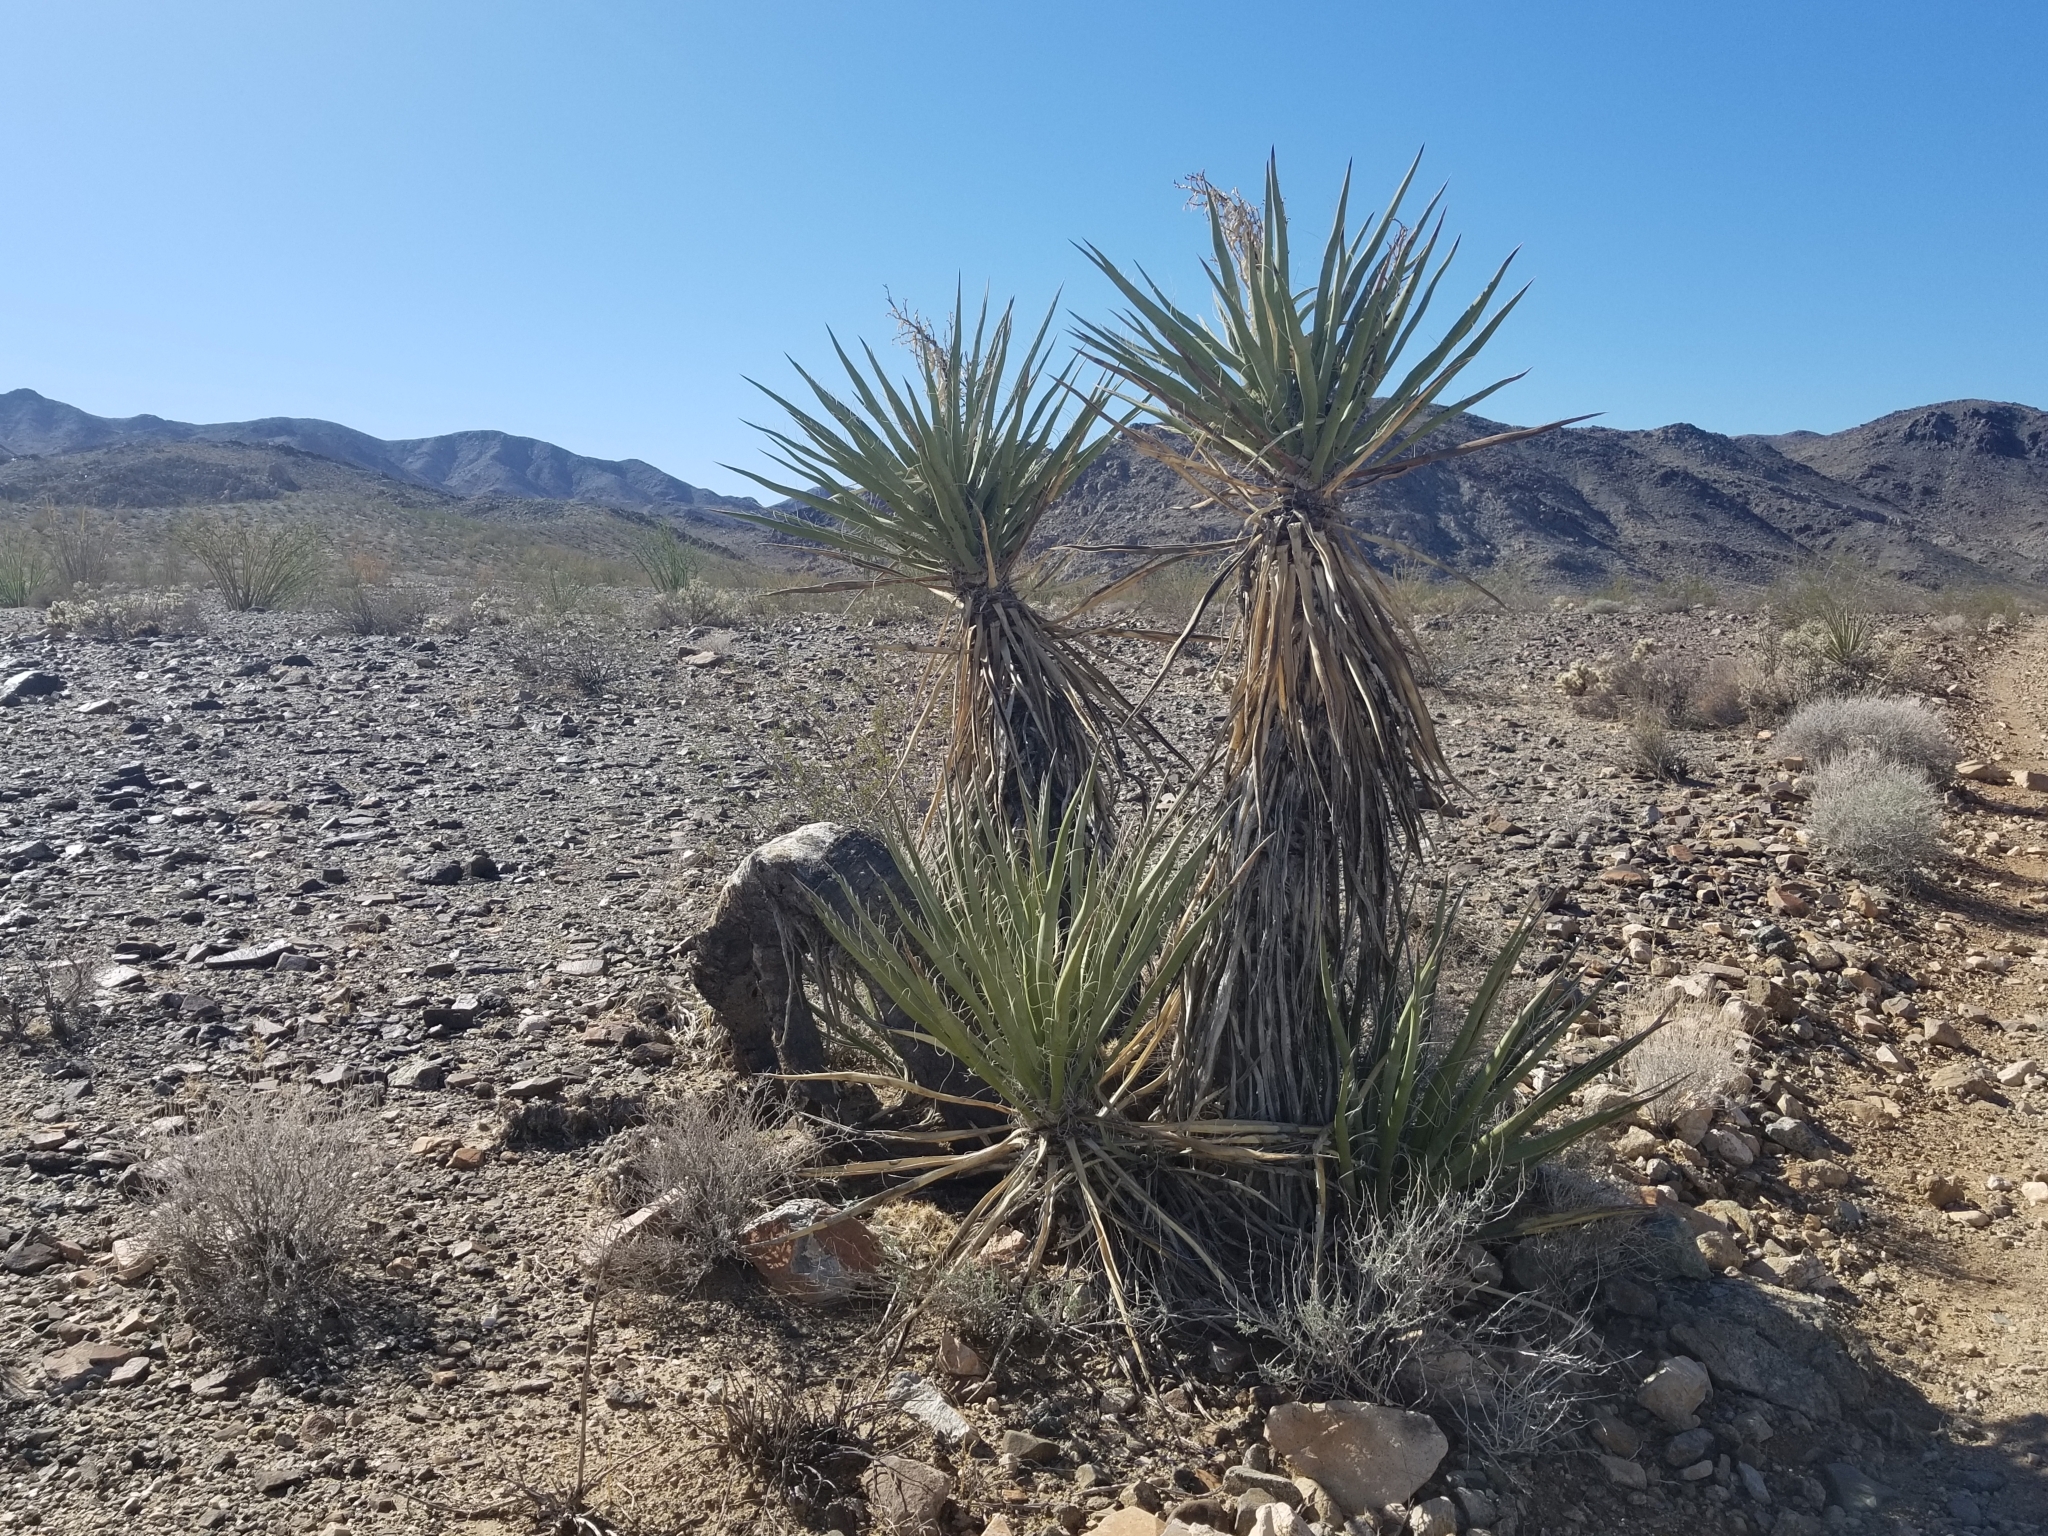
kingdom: Plantae
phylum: Tracheophyta
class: Liliopsida
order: Asparagales
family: Asparagaceae
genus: Yucca
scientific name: Yucca schidigera
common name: Mojave yucca
